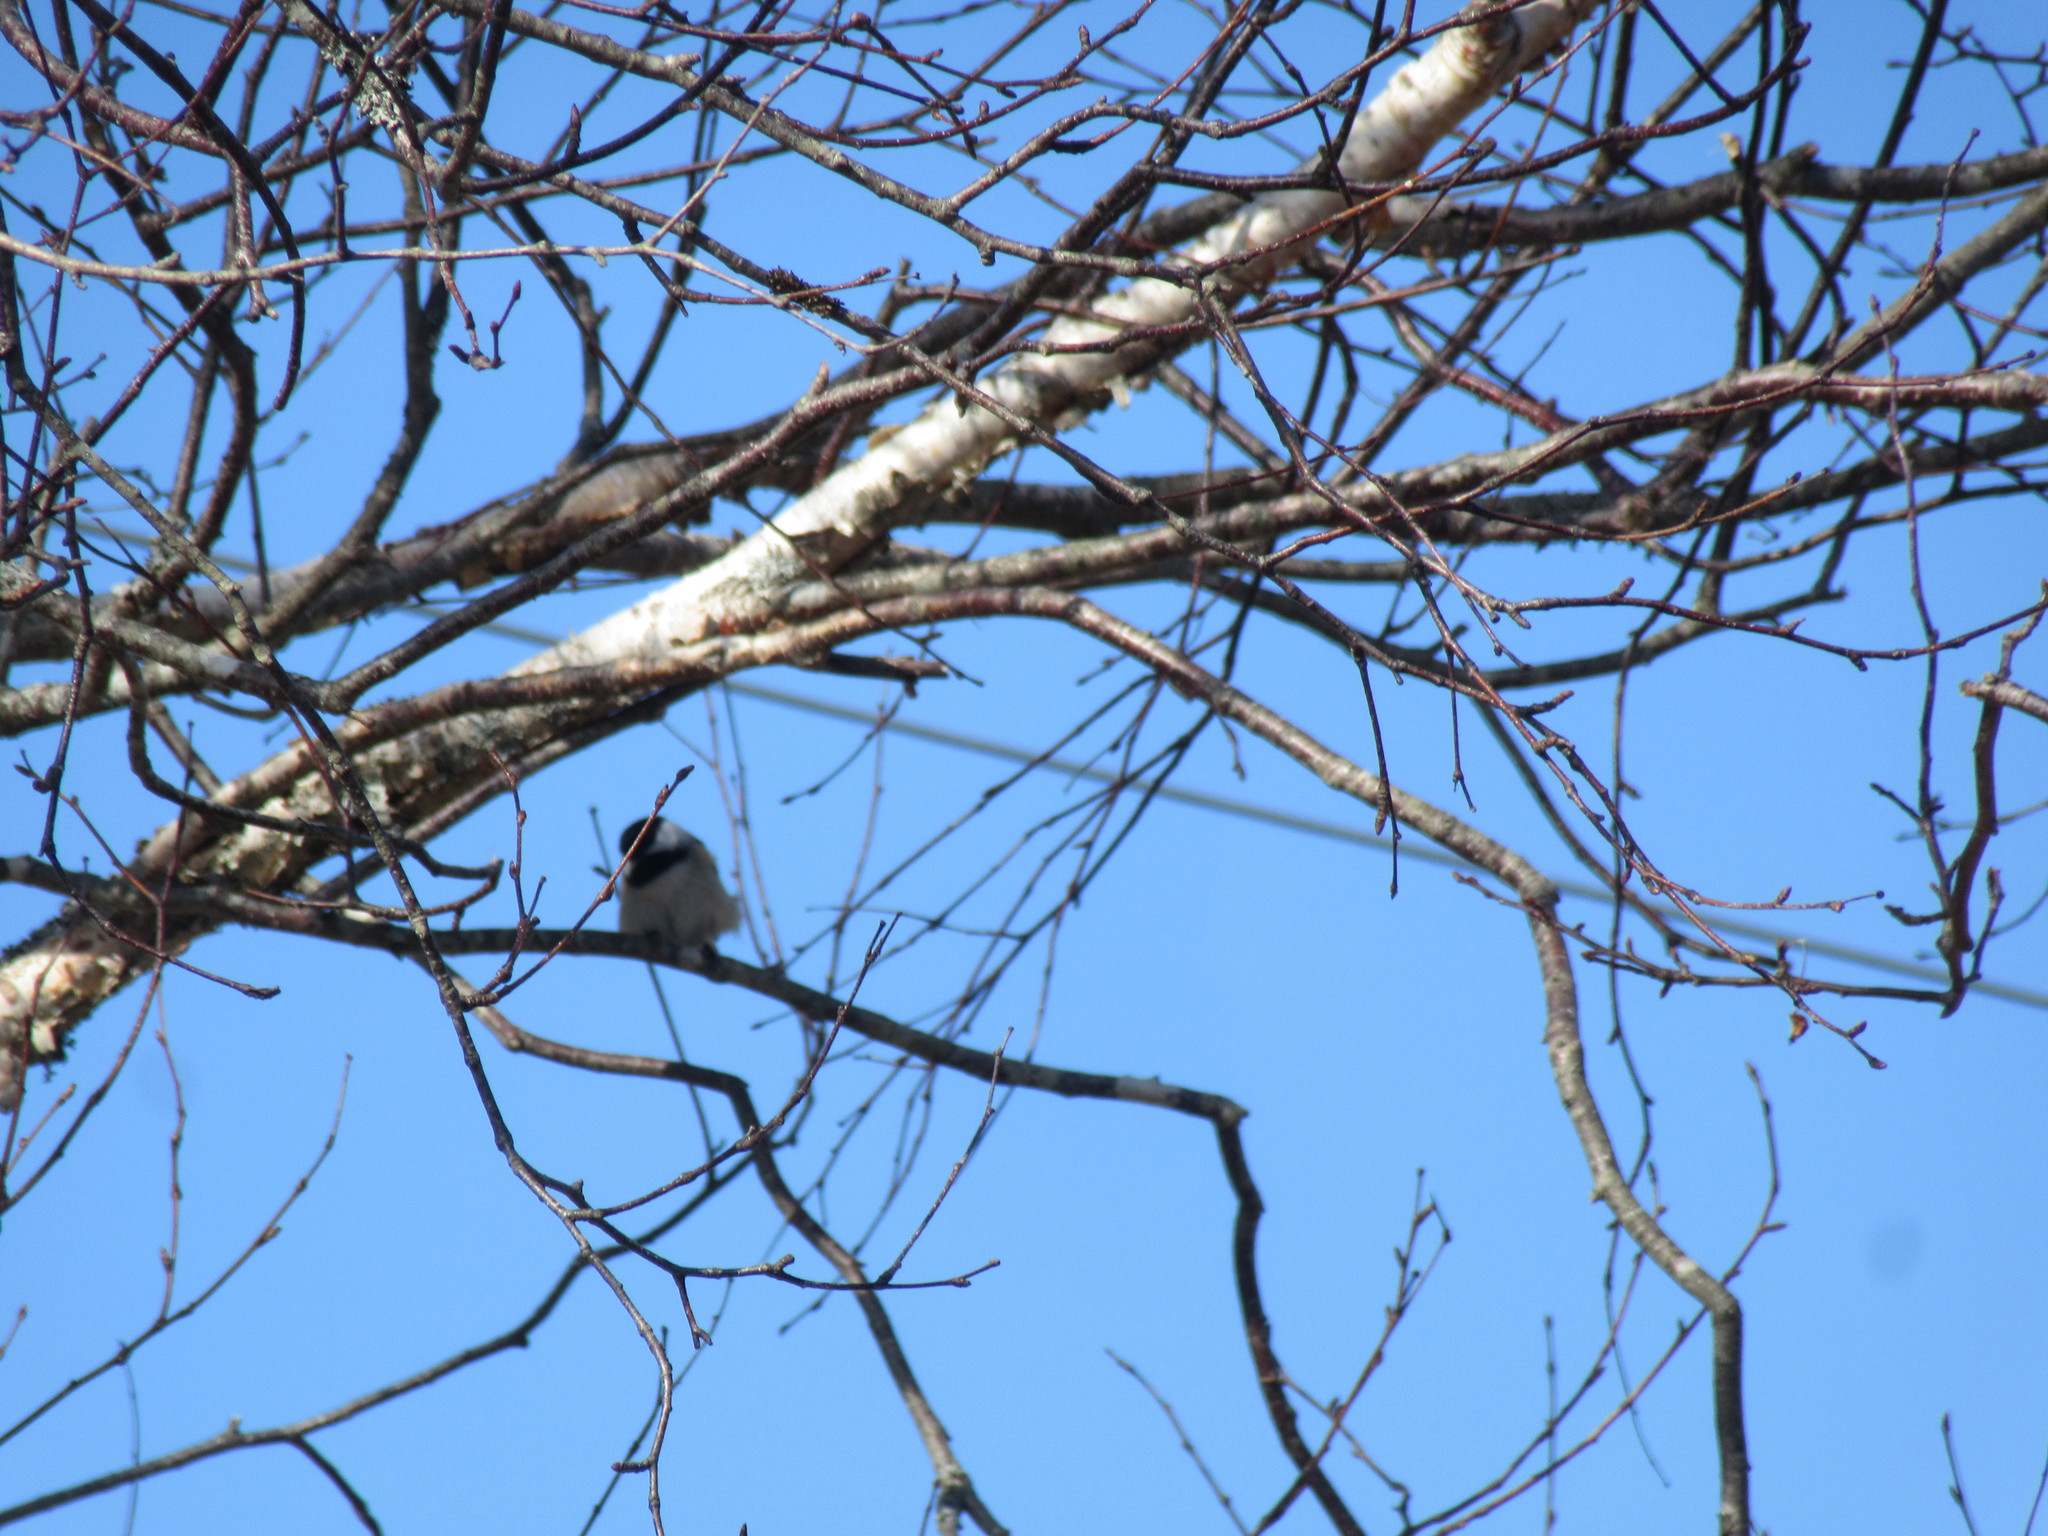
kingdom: Animalia
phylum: Chordata
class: Aves
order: Passeriformes
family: Paridae
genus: Poecile
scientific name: Poecile atricapillus
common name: Black-capped chickadee
